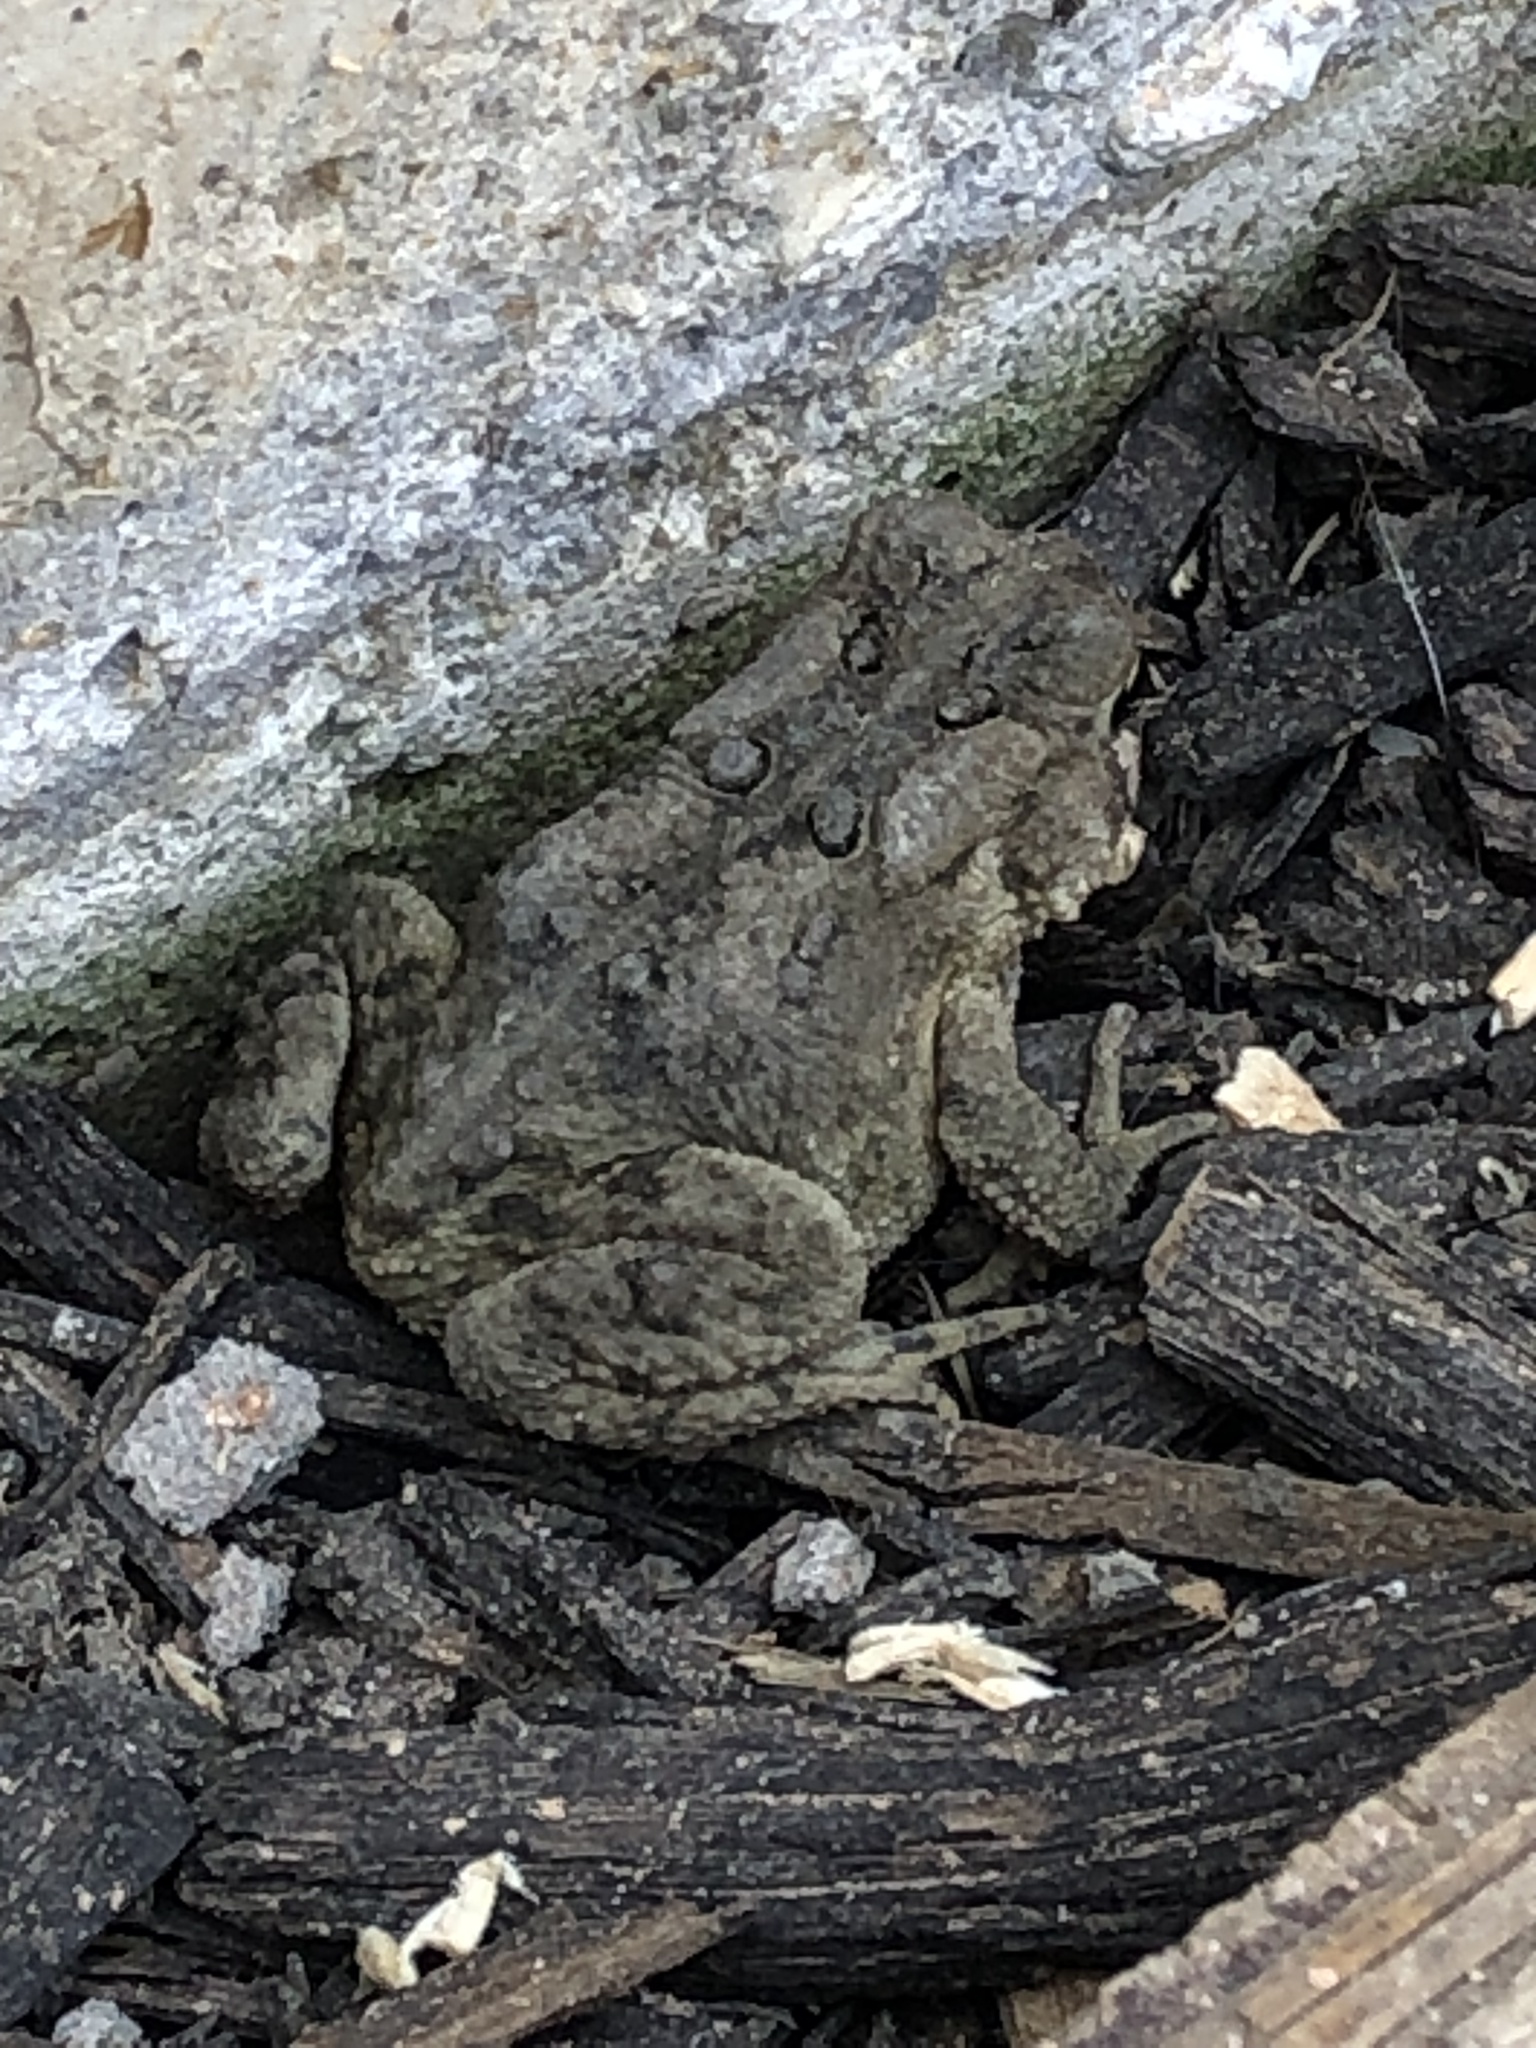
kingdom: Animalia
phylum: Chordata
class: Amphibia
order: Anura
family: Bufonidae
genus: Anaxyrus
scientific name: Anaxyrus americanus
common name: American toad
